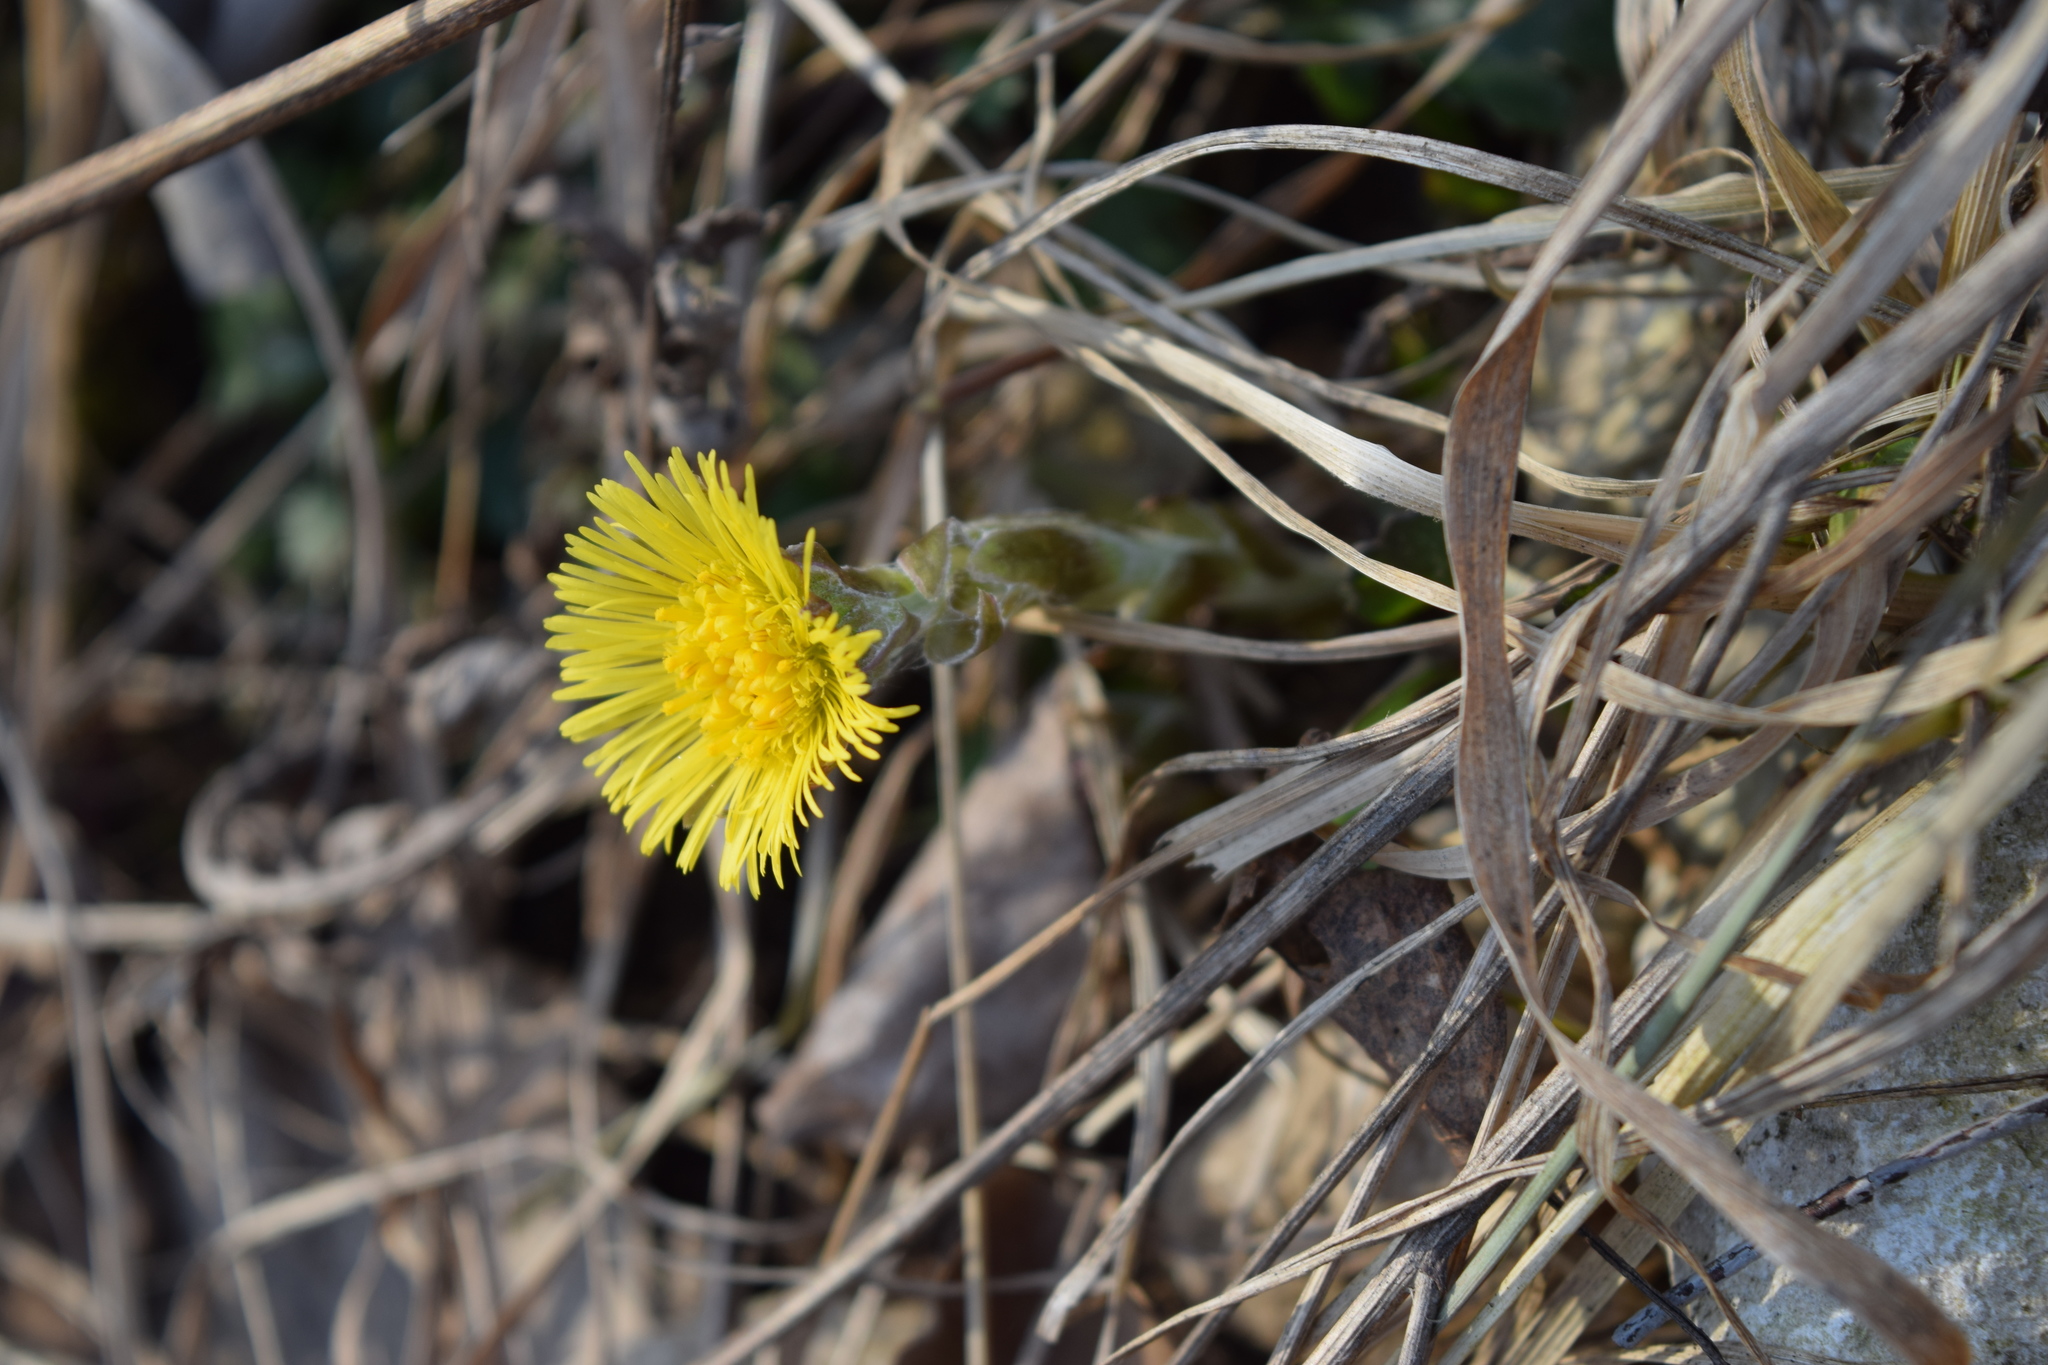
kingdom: Plantae
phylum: Tracheophyta
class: Magnoliopsida
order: Asterales
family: Asteraceae
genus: Tussilago
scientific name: Tussilago farfara
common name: Coltsfoot
